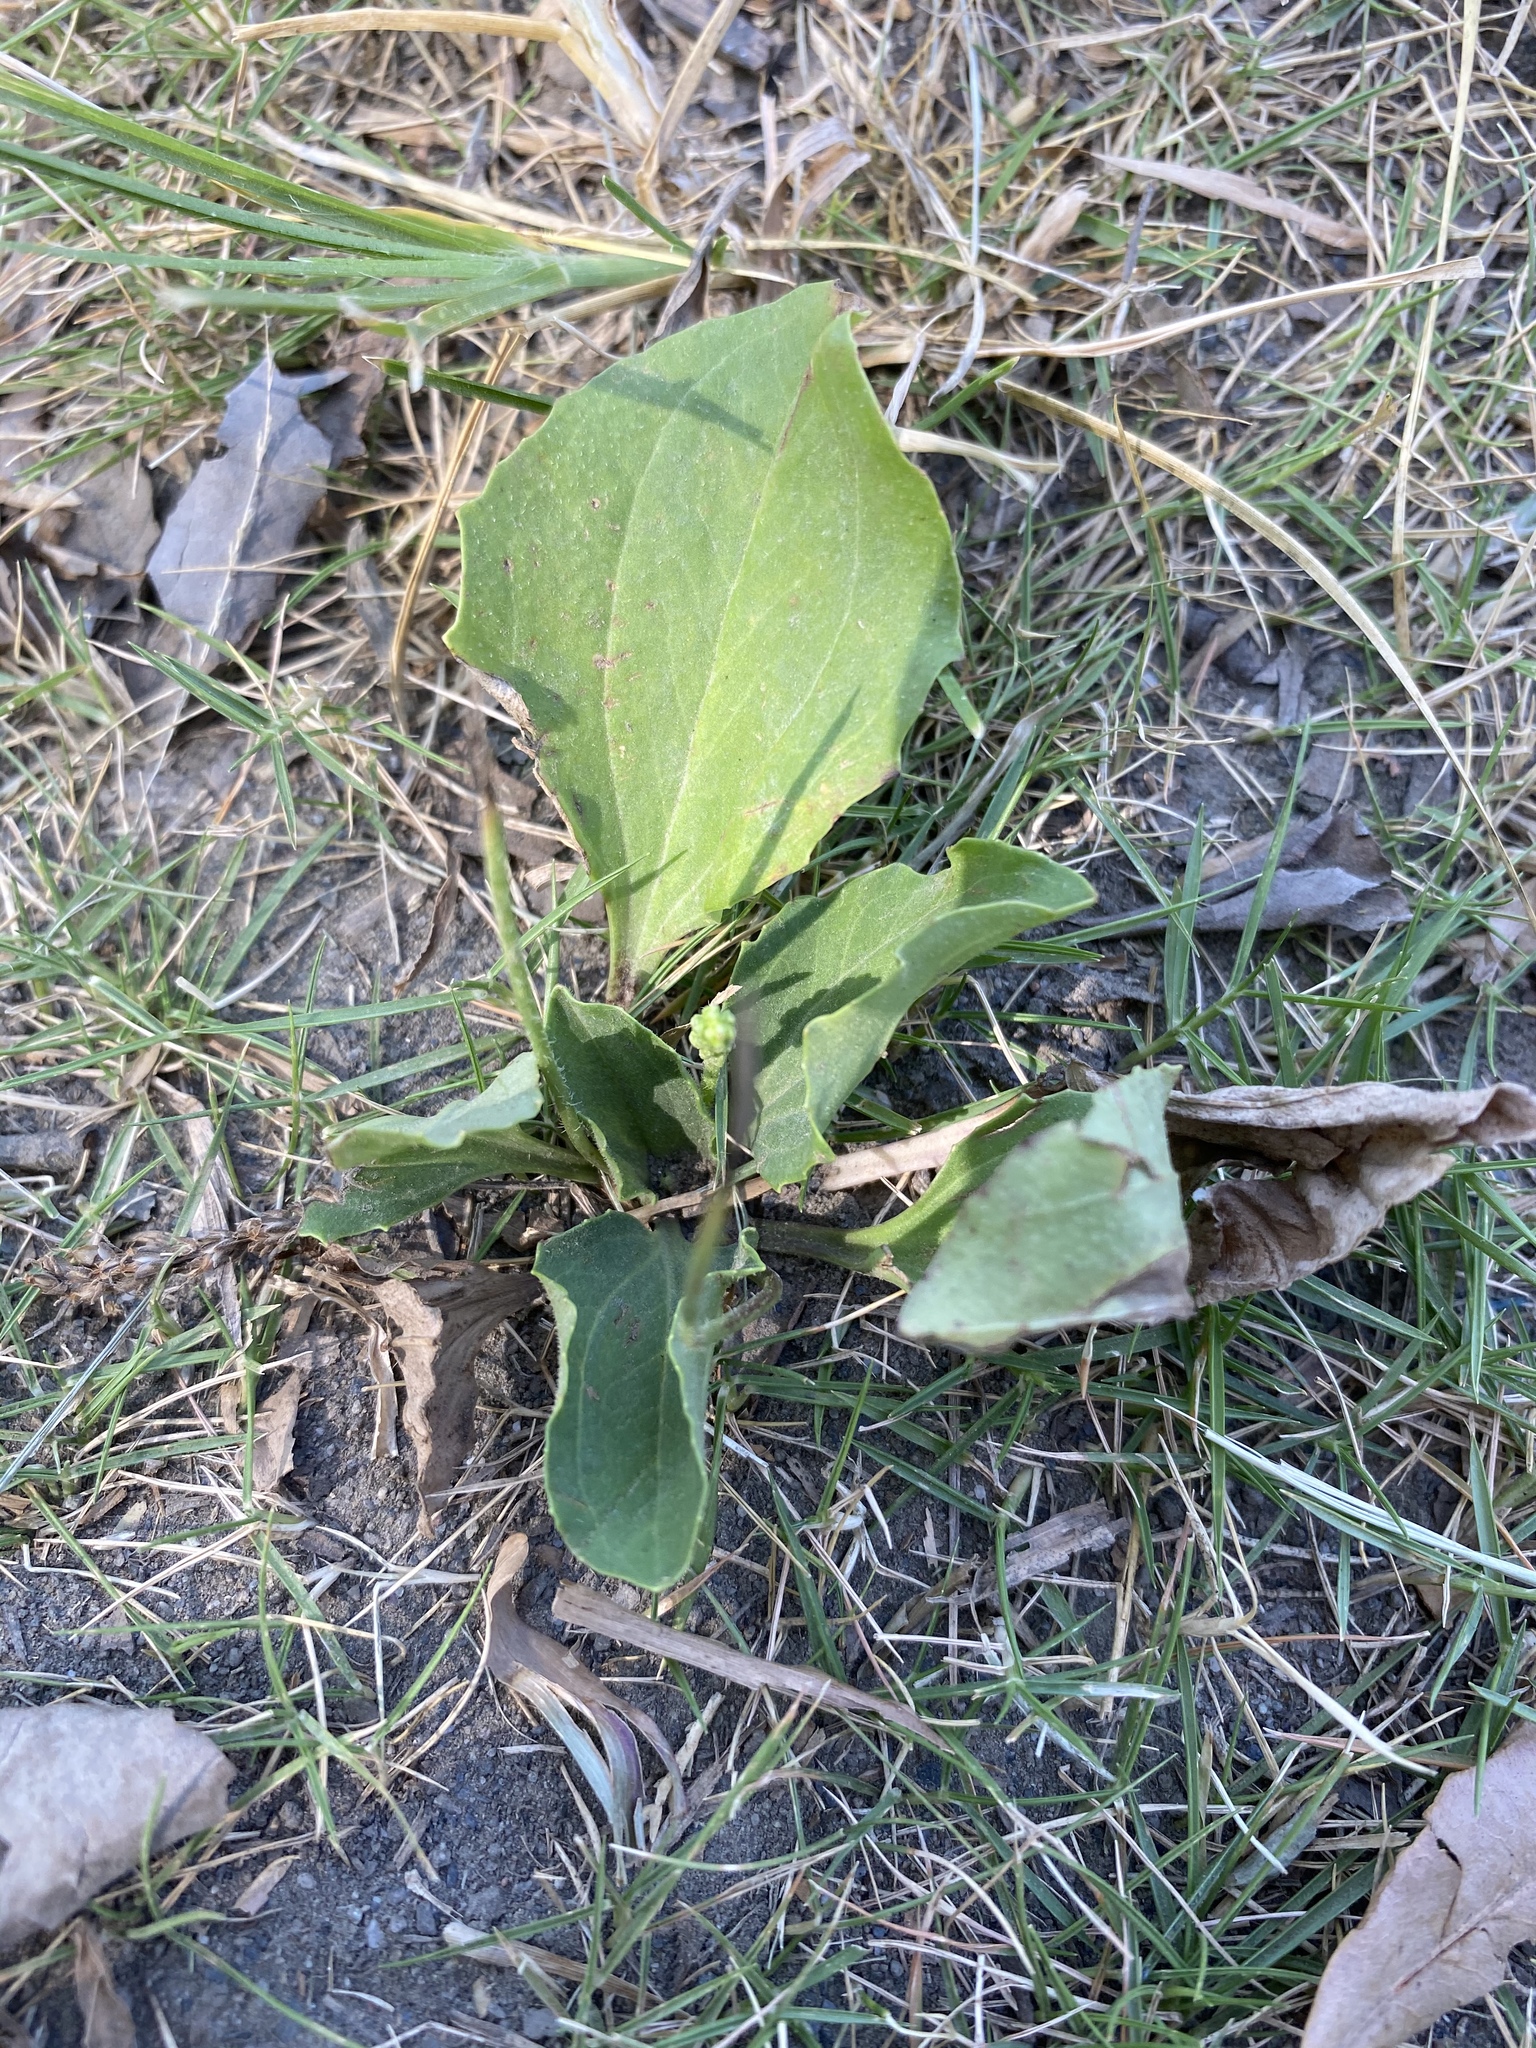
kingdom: Plantae
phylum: Tracheophyta
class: Magnoliopsida
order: Lamiales
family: Plantaginaceae
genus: Plantago
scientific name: Plantago asiatica
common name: Psyllium
